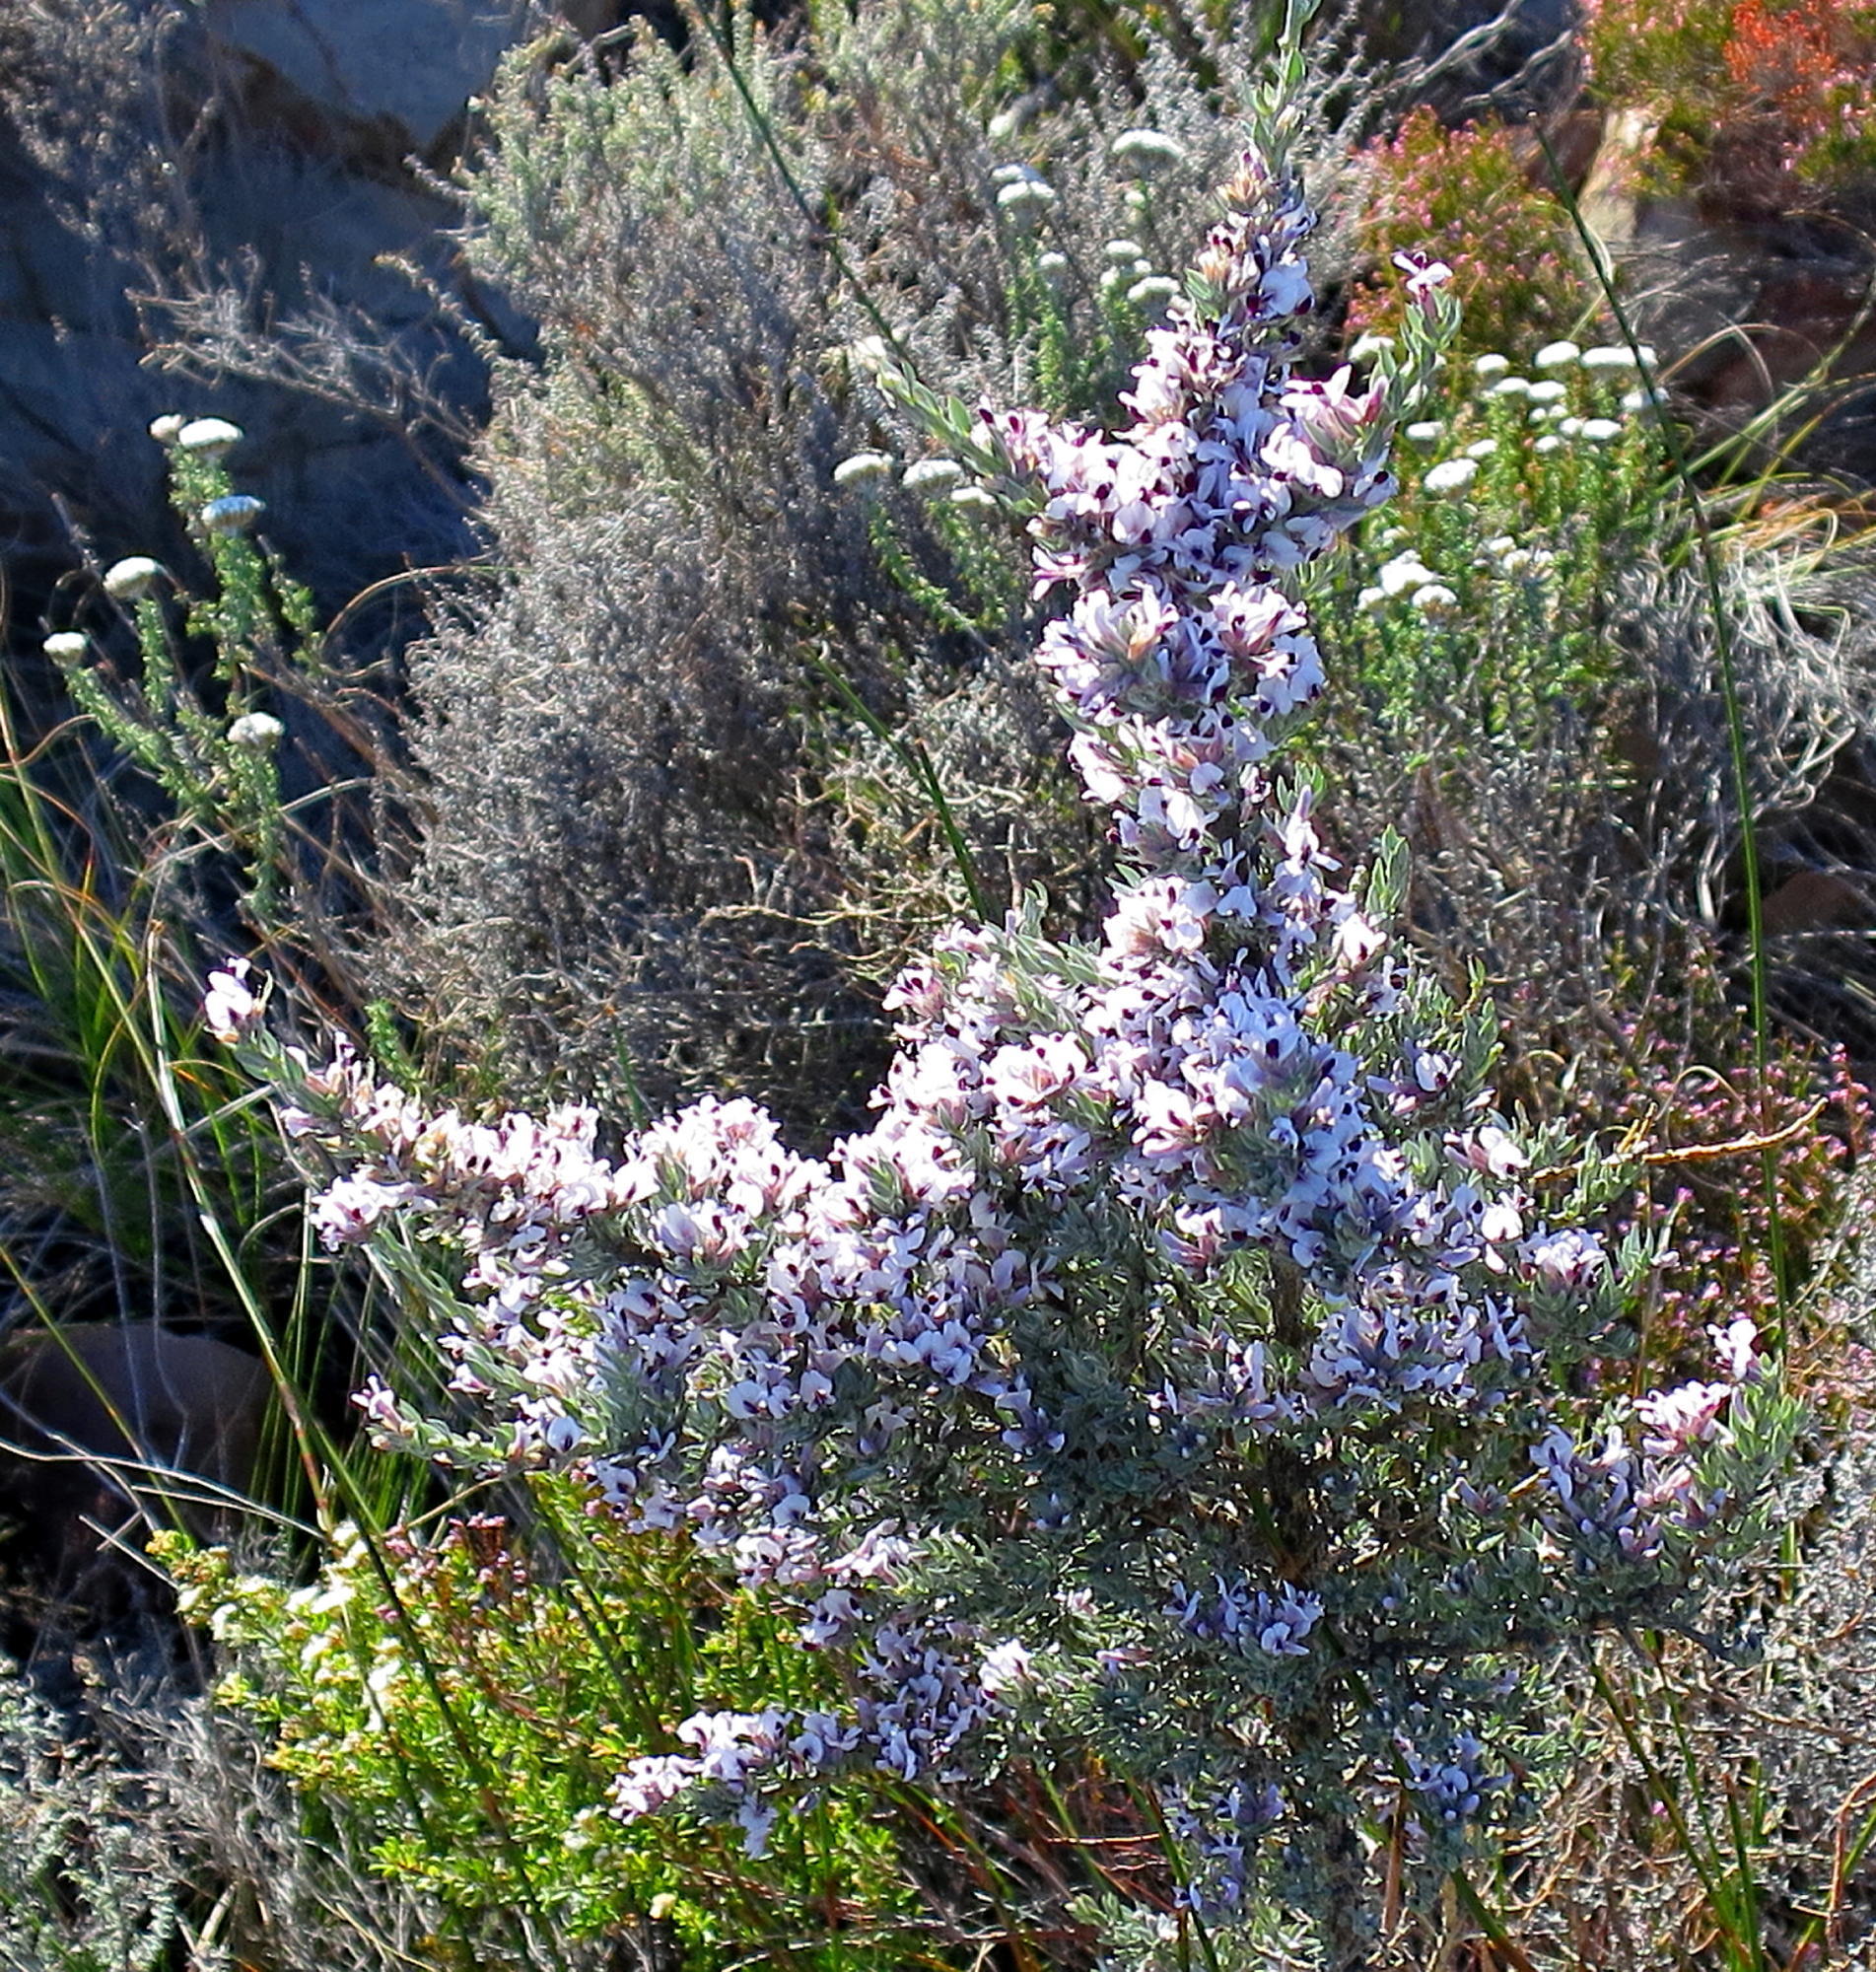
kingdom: Plantae
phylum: Tracheophyta
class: Magnoliopsida
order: Fabales
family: Fabaceae
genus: Amphithalea
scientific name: Amphithalea violacea
